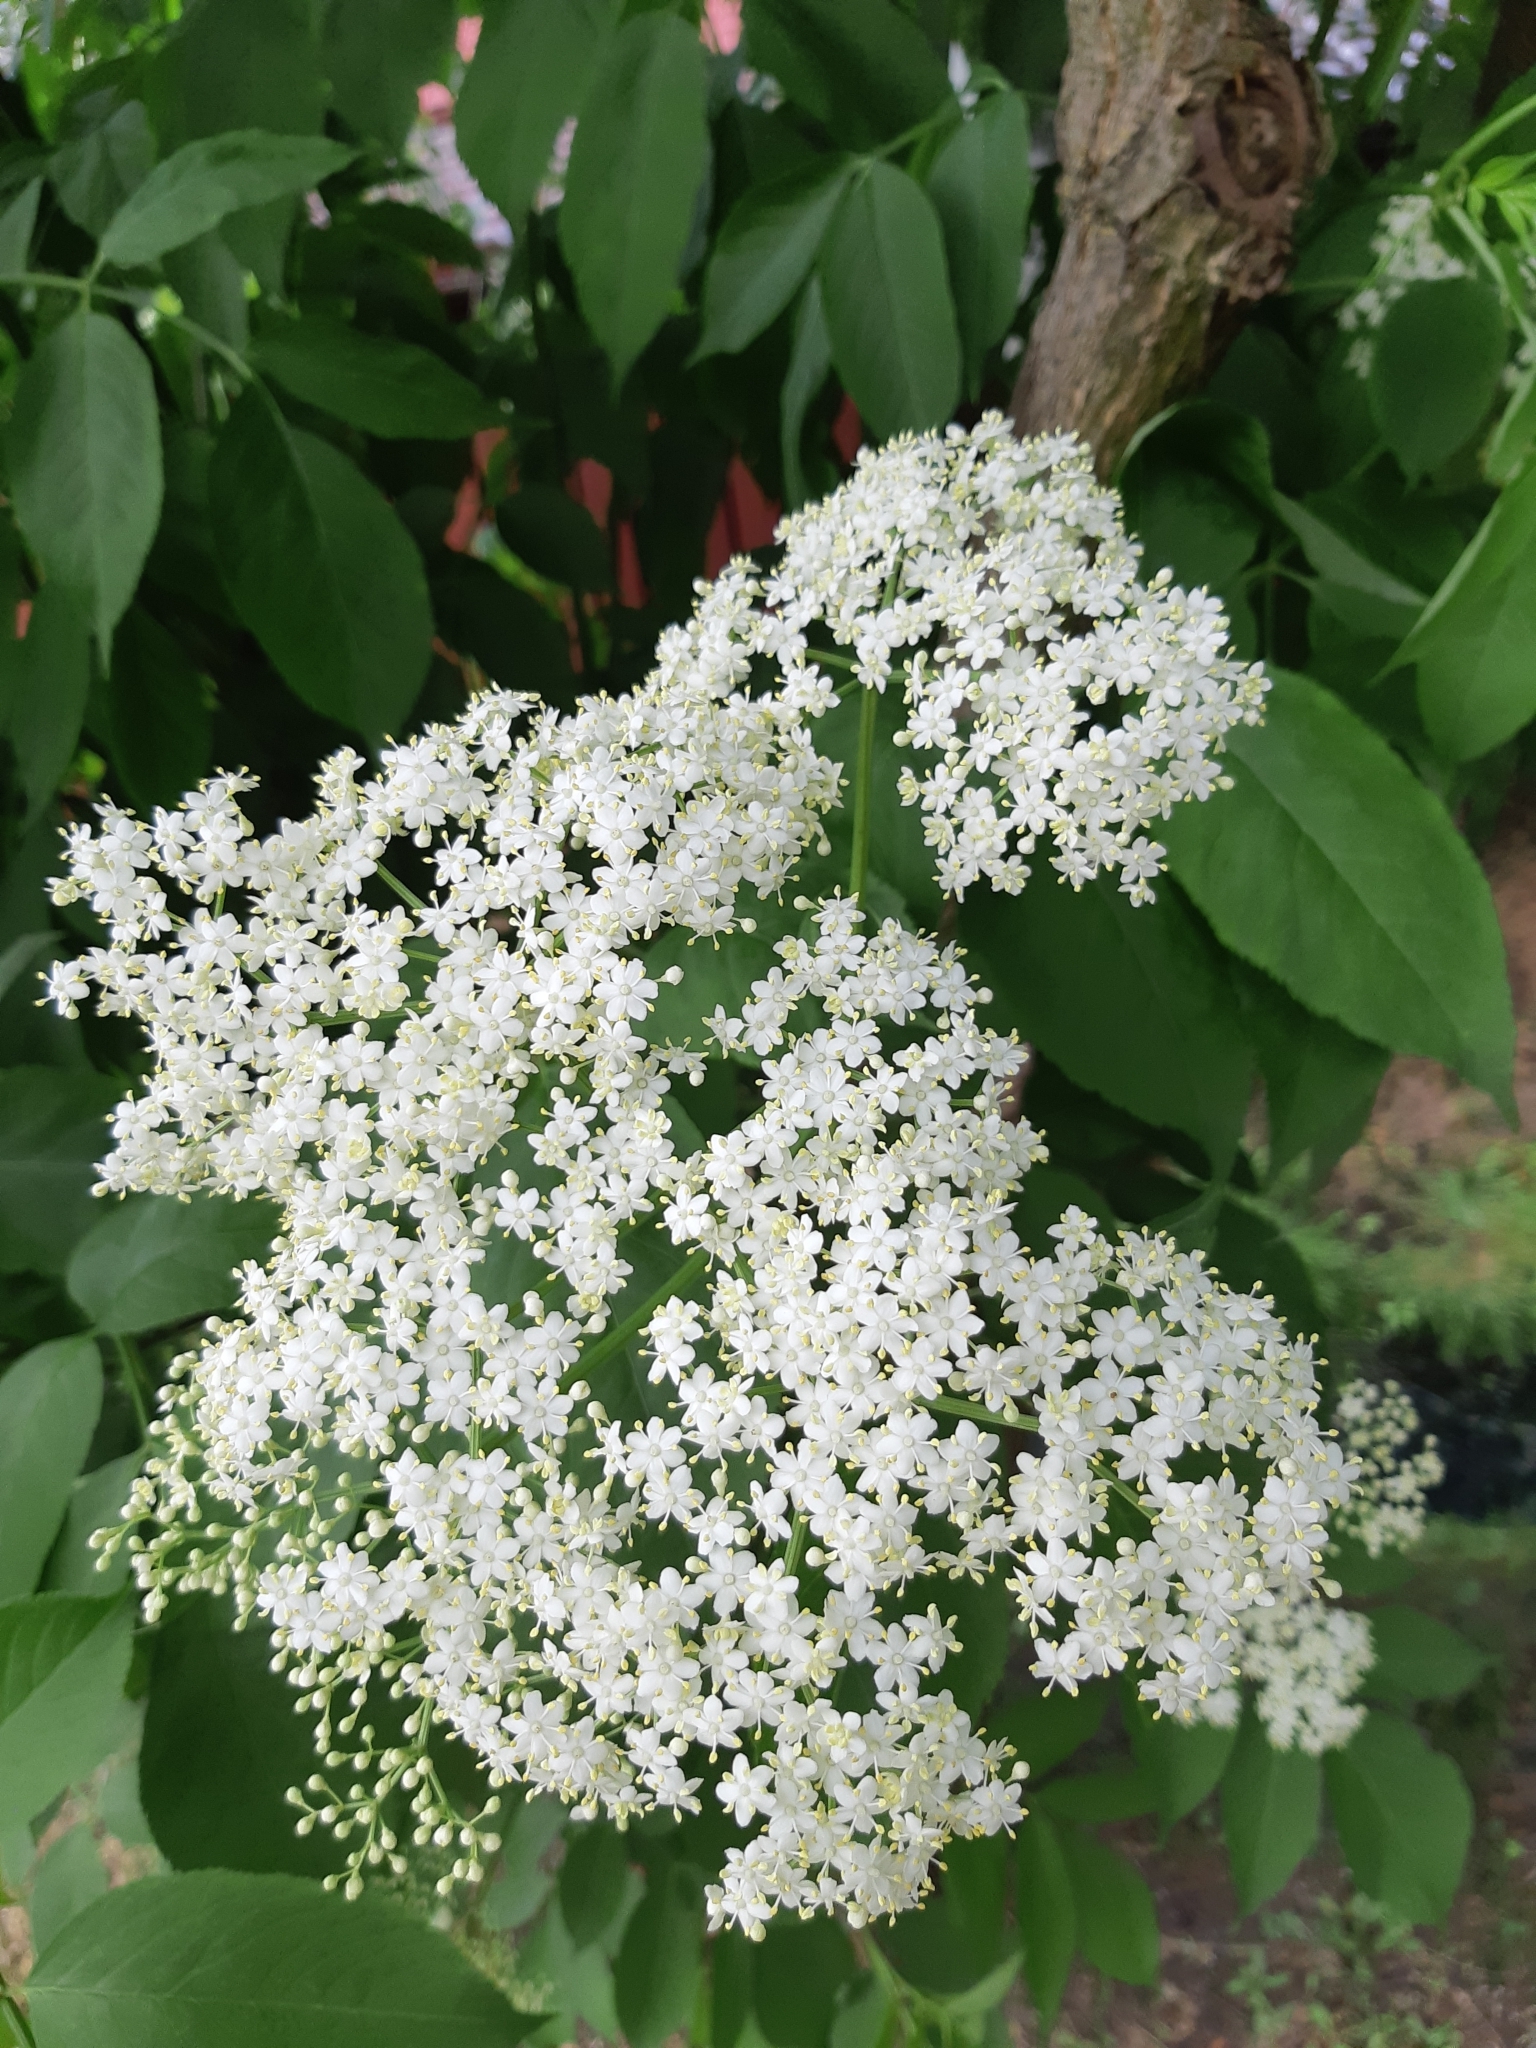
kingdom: Plantae
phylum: Tracheophyta
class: Magnoliopsida
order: Dipsacales
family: Viburnaceae
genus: Sambucus
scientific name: Sambucus nigra
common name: Elder
